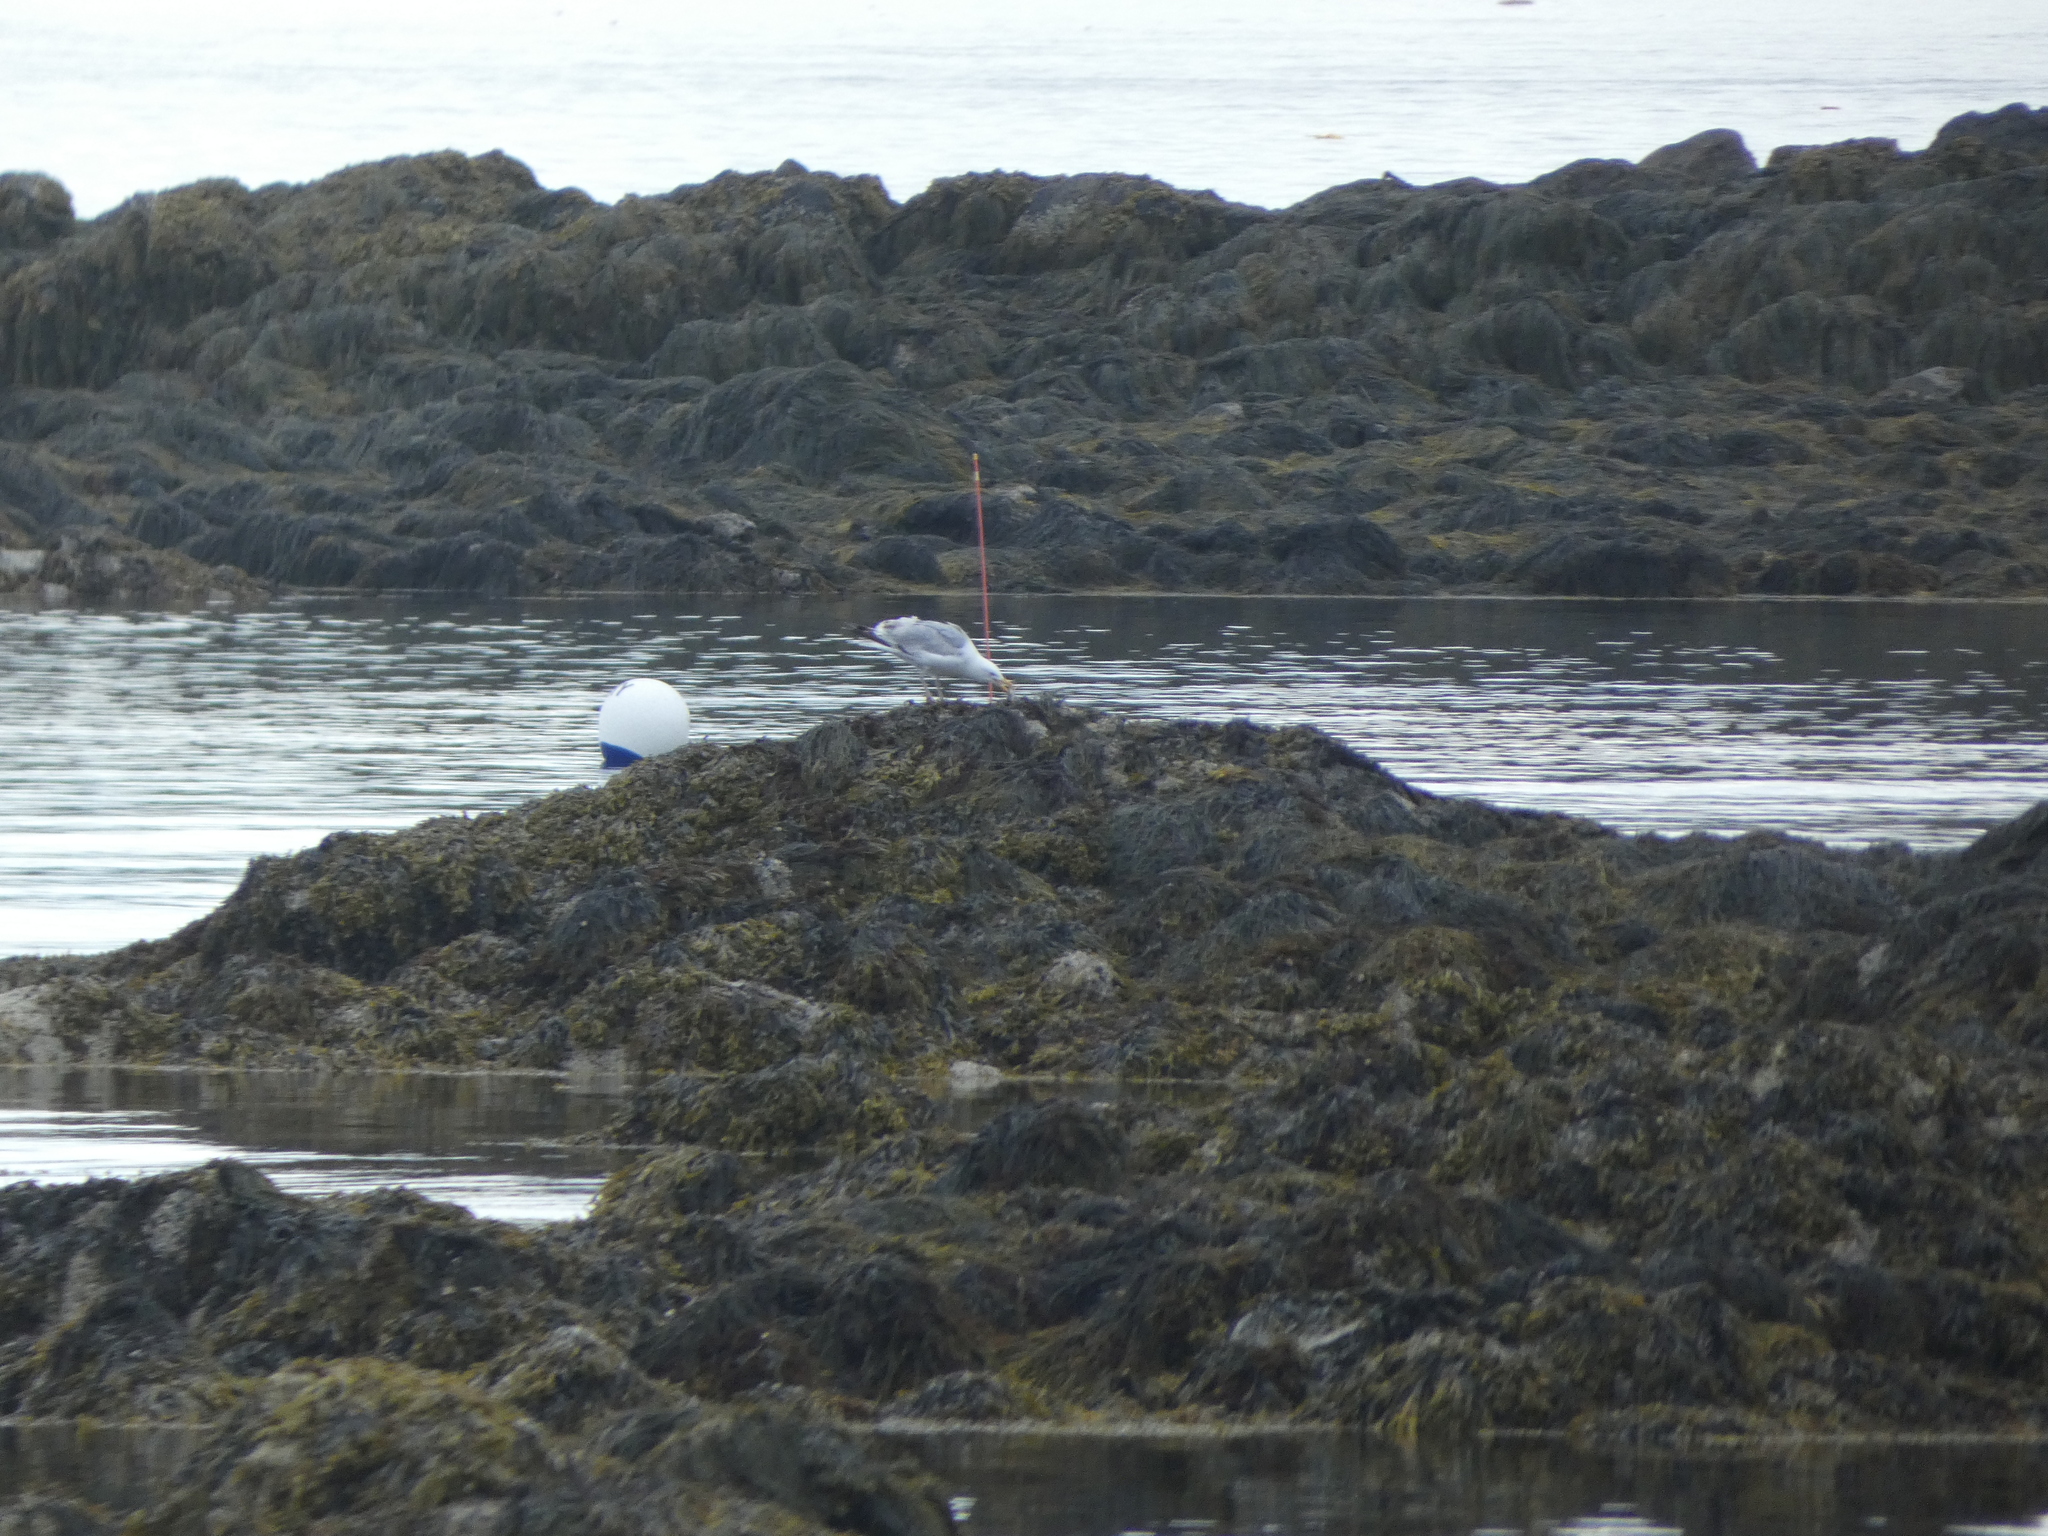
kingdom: Animalia
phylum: Chordata
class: Aves
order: Charadriiformes
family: Laridae
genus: Larus
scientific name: Larus argentatus
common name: Herring gull
